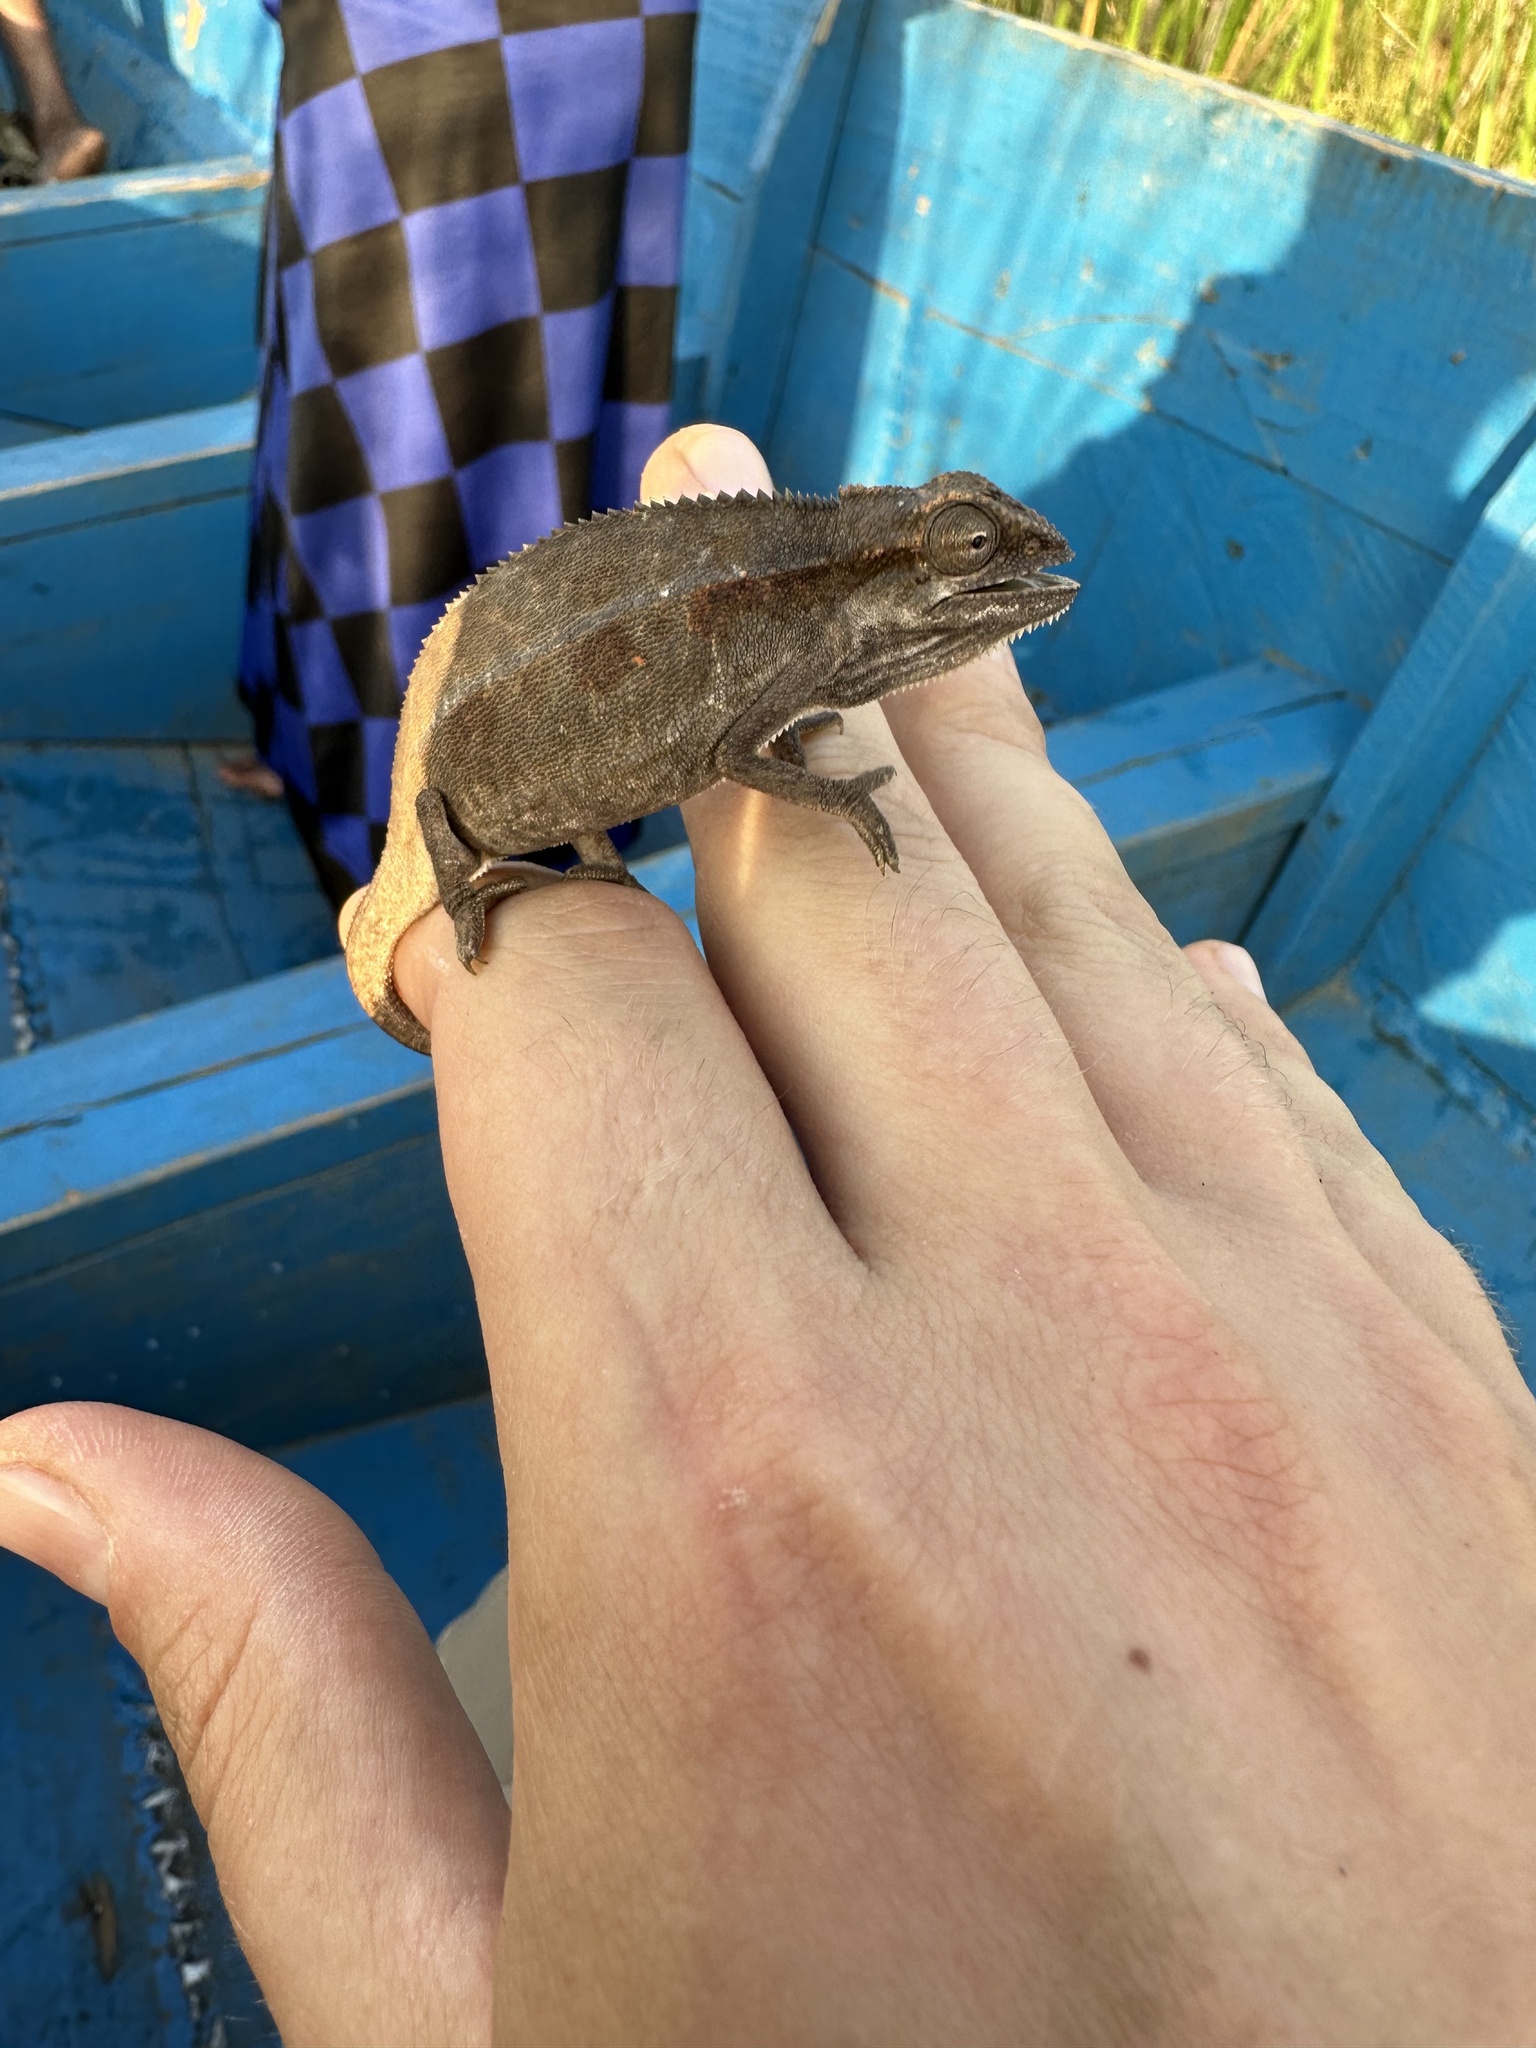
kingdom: Animalia
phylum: Chordata
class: Squamata
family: Chamaeleonidae
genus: Trioceros
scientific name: Trioceros ellioti
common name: Montane side-striped chameleon
